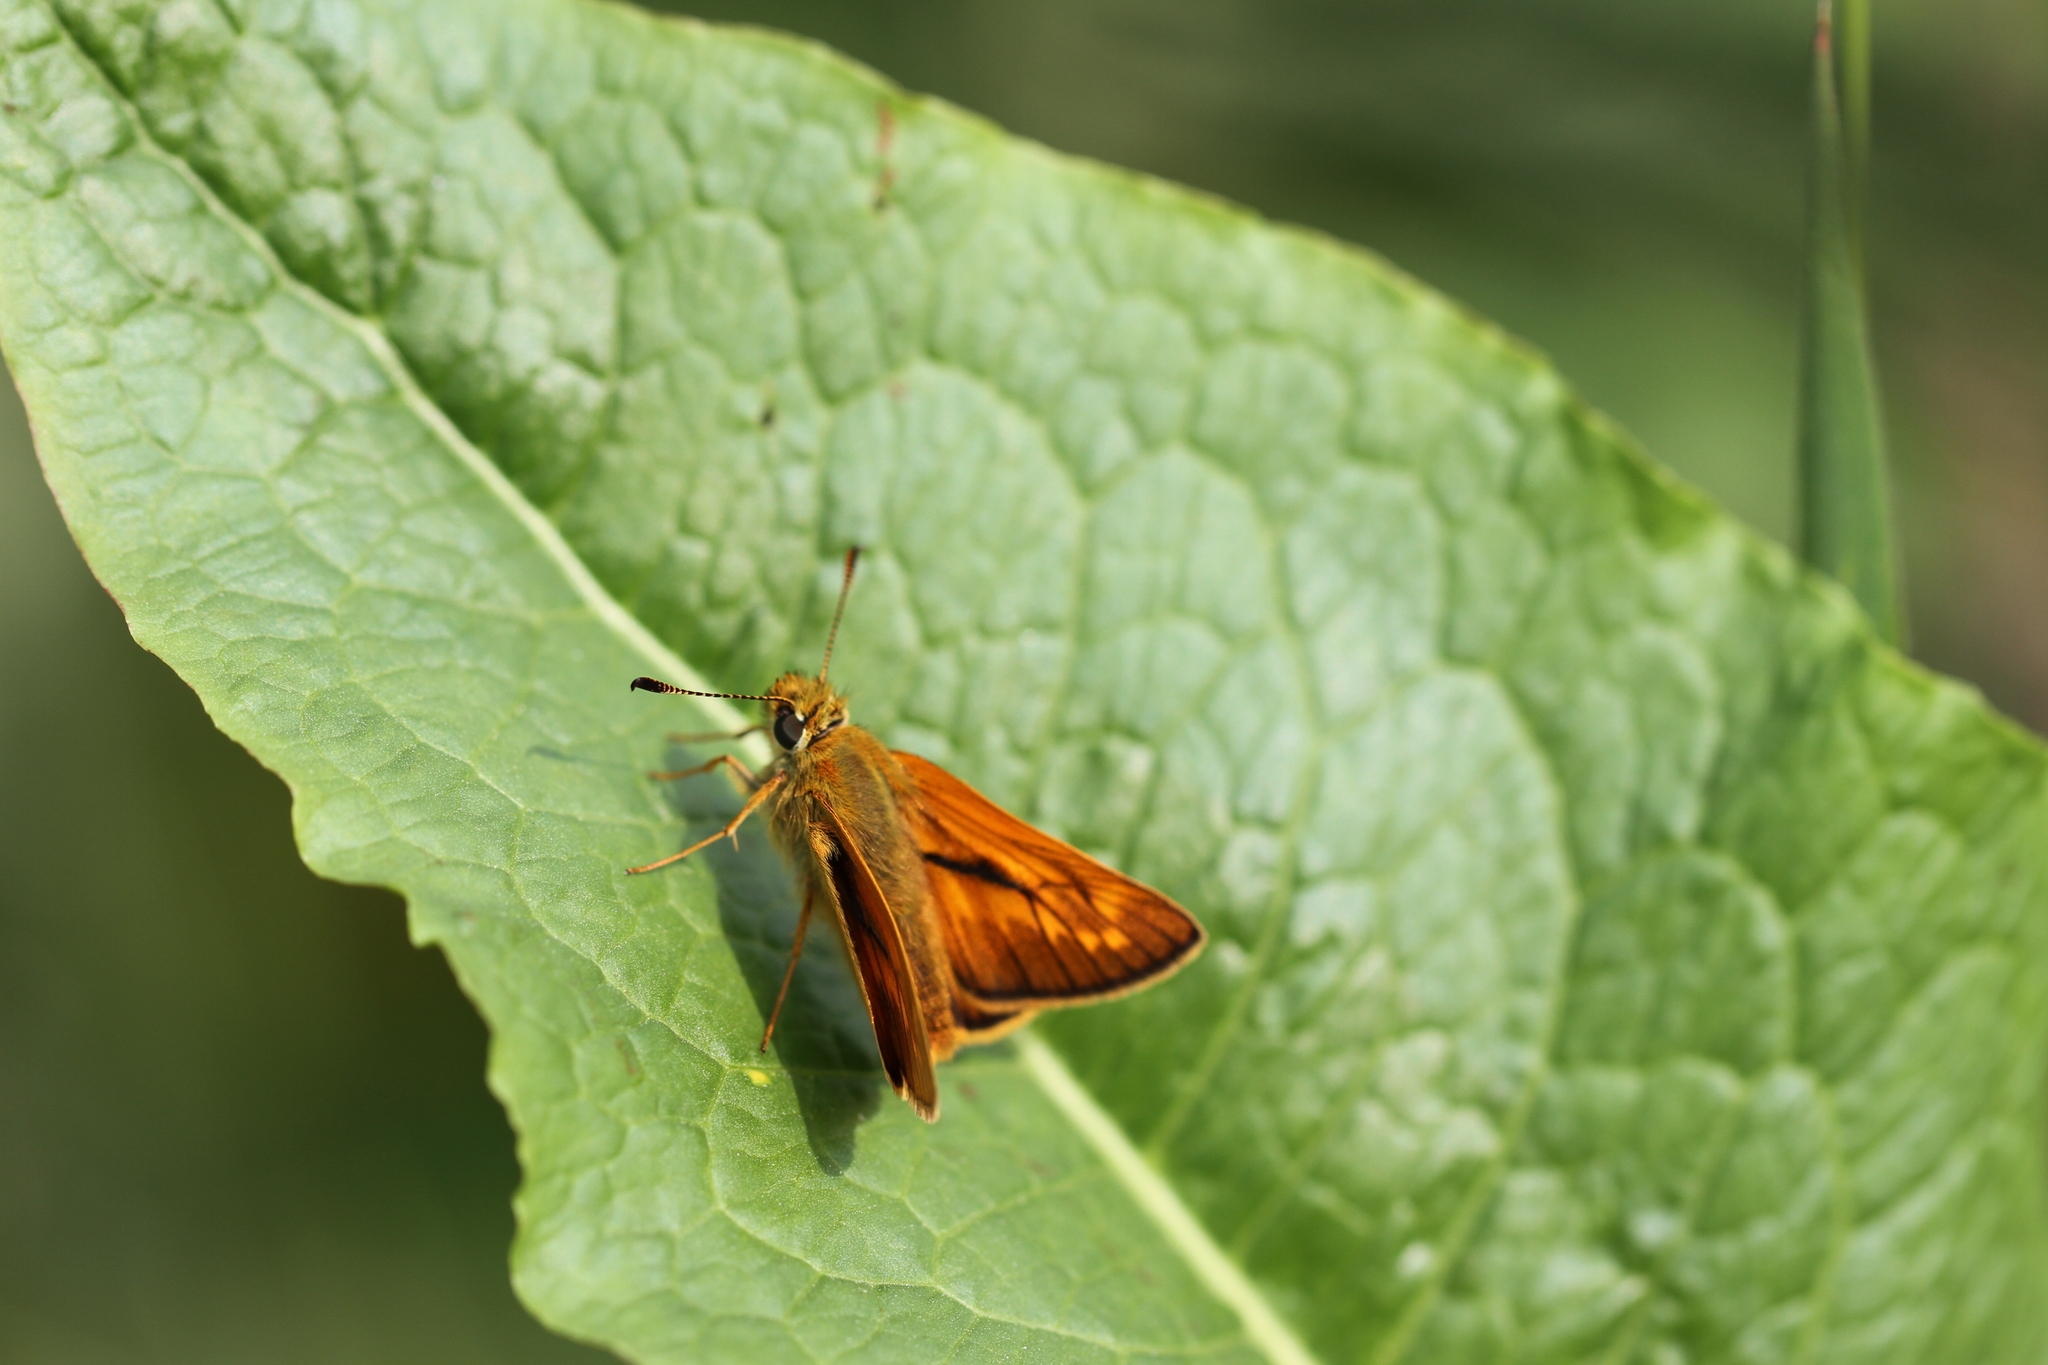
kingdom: Animalia
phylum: Arthropoda
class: Insecta
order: Lepidoptera
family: Hesperiidae
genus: Ochlodes
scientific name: Ochlodes venata
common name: Large skipper
